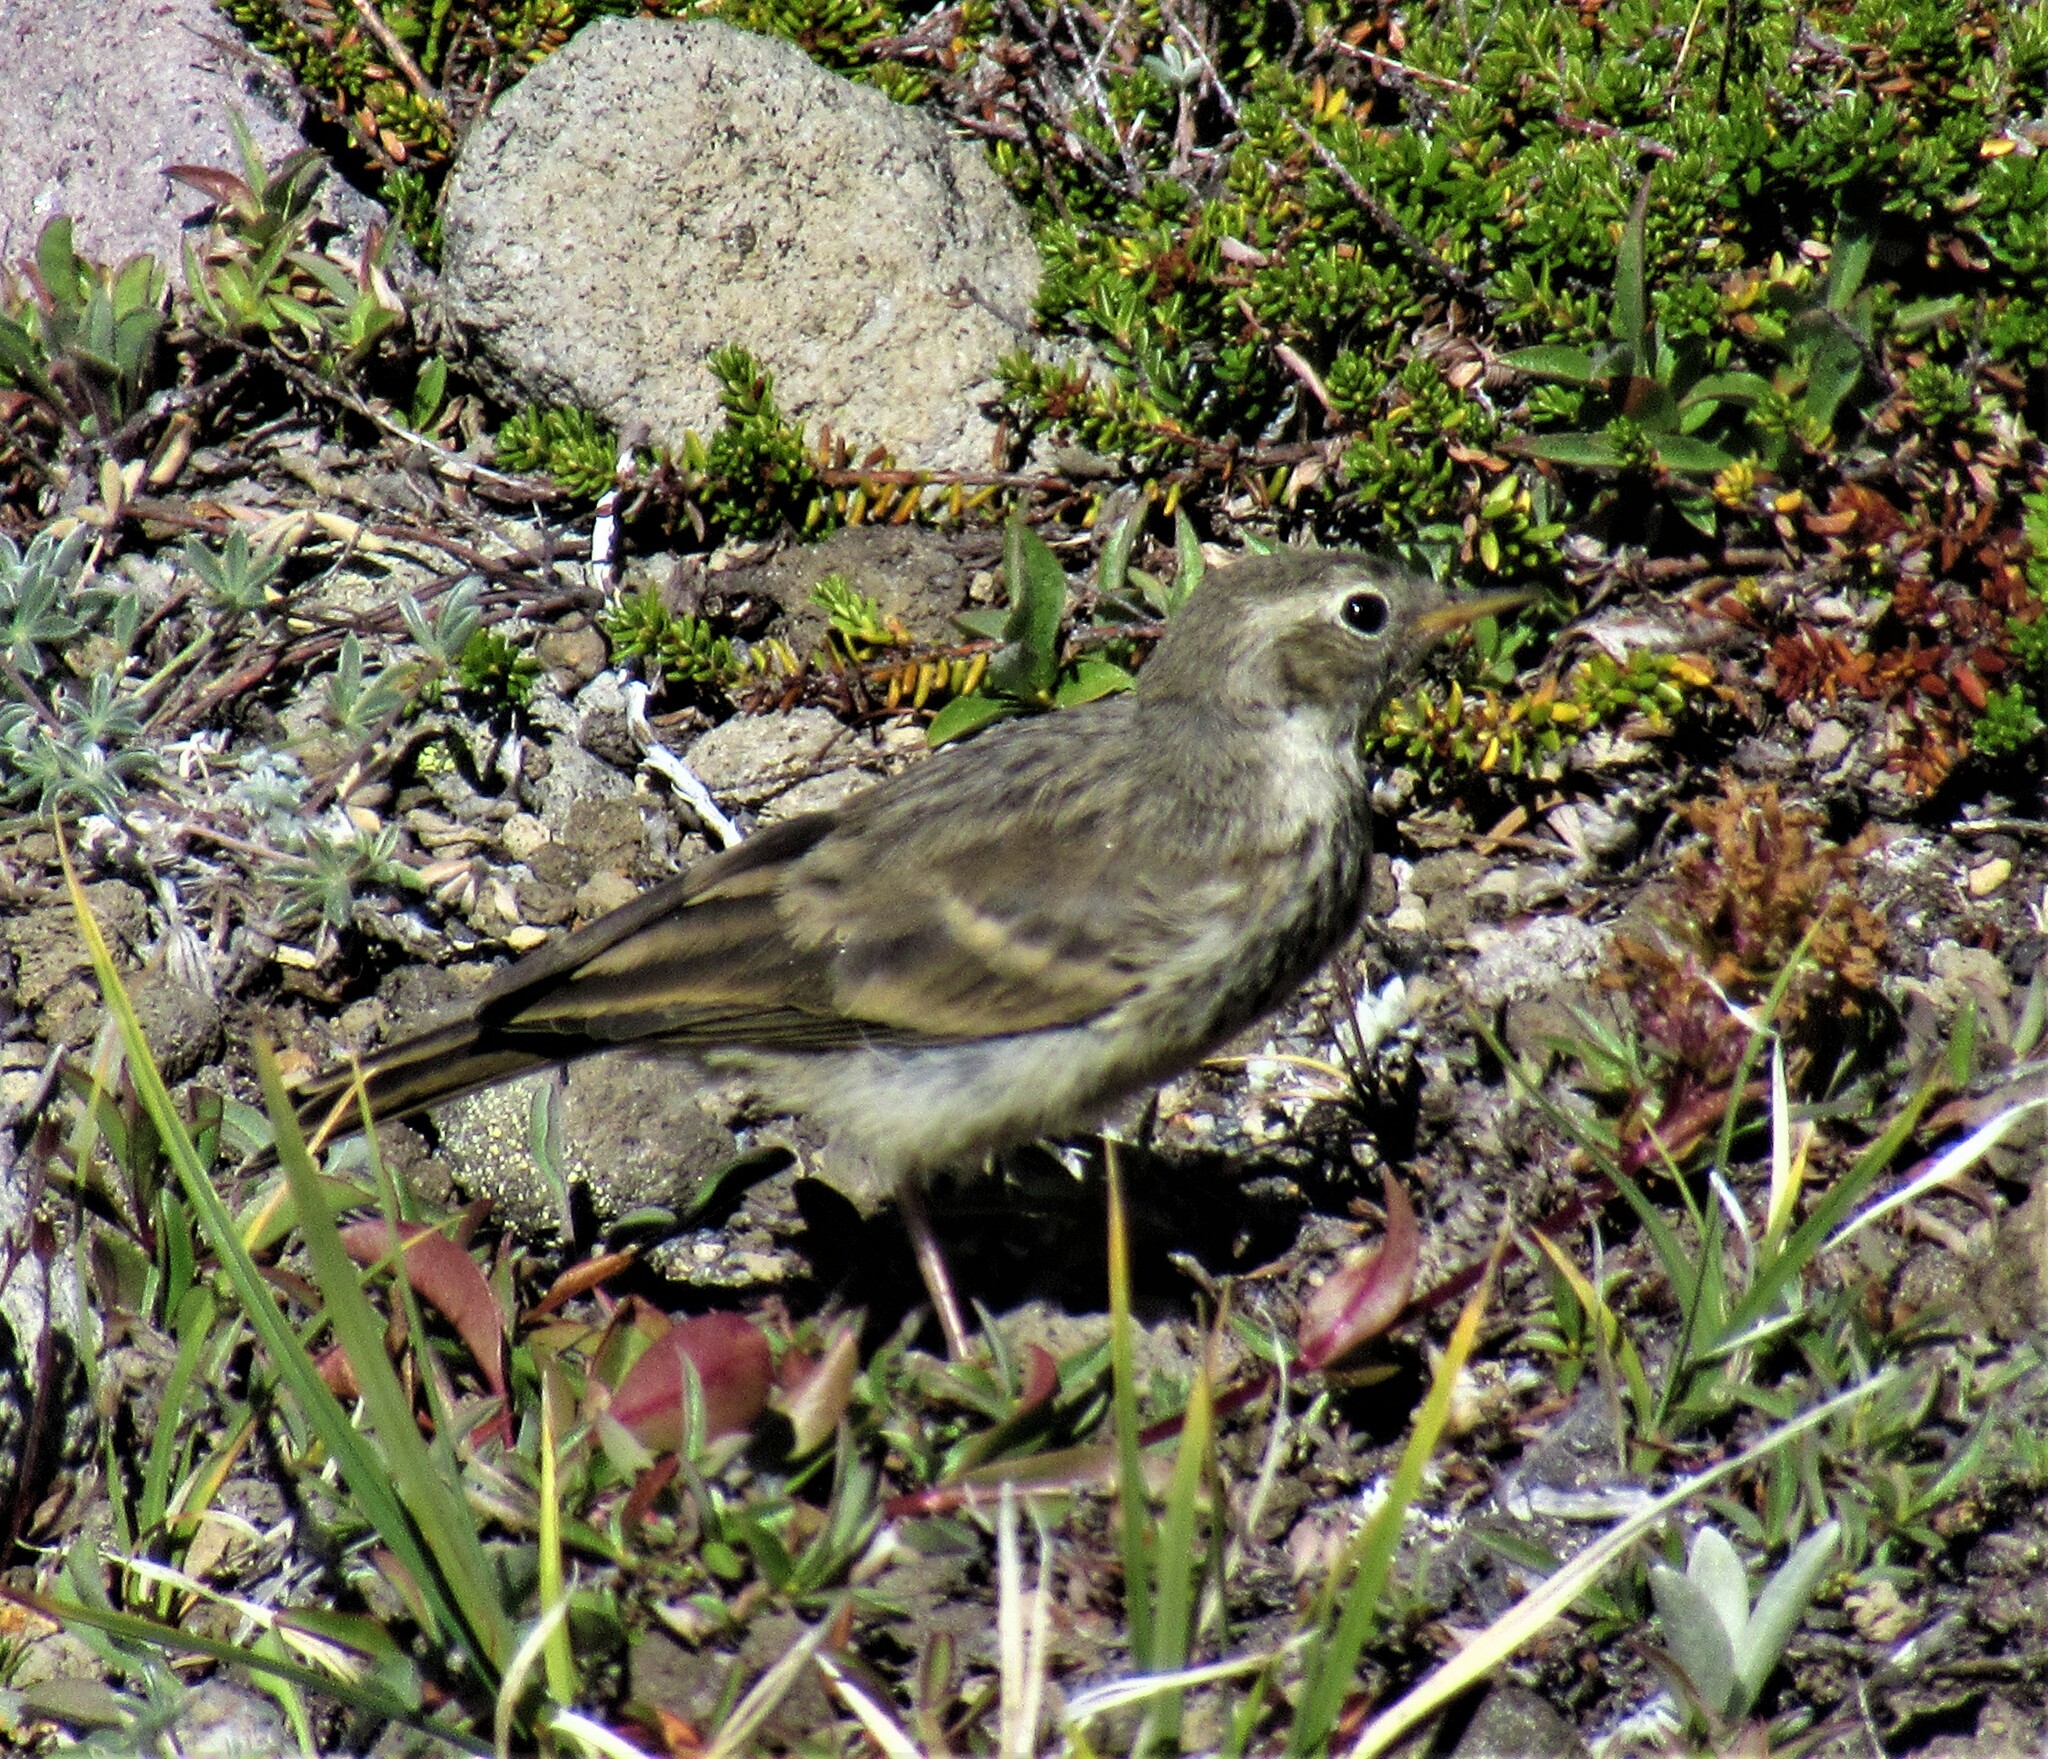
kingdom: Animalia
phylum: Chordata
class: Aves
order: Passeriformes
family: Motacillidae
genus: Anthus
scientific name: Anthus rubescens
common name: Buff-bellied pipit
